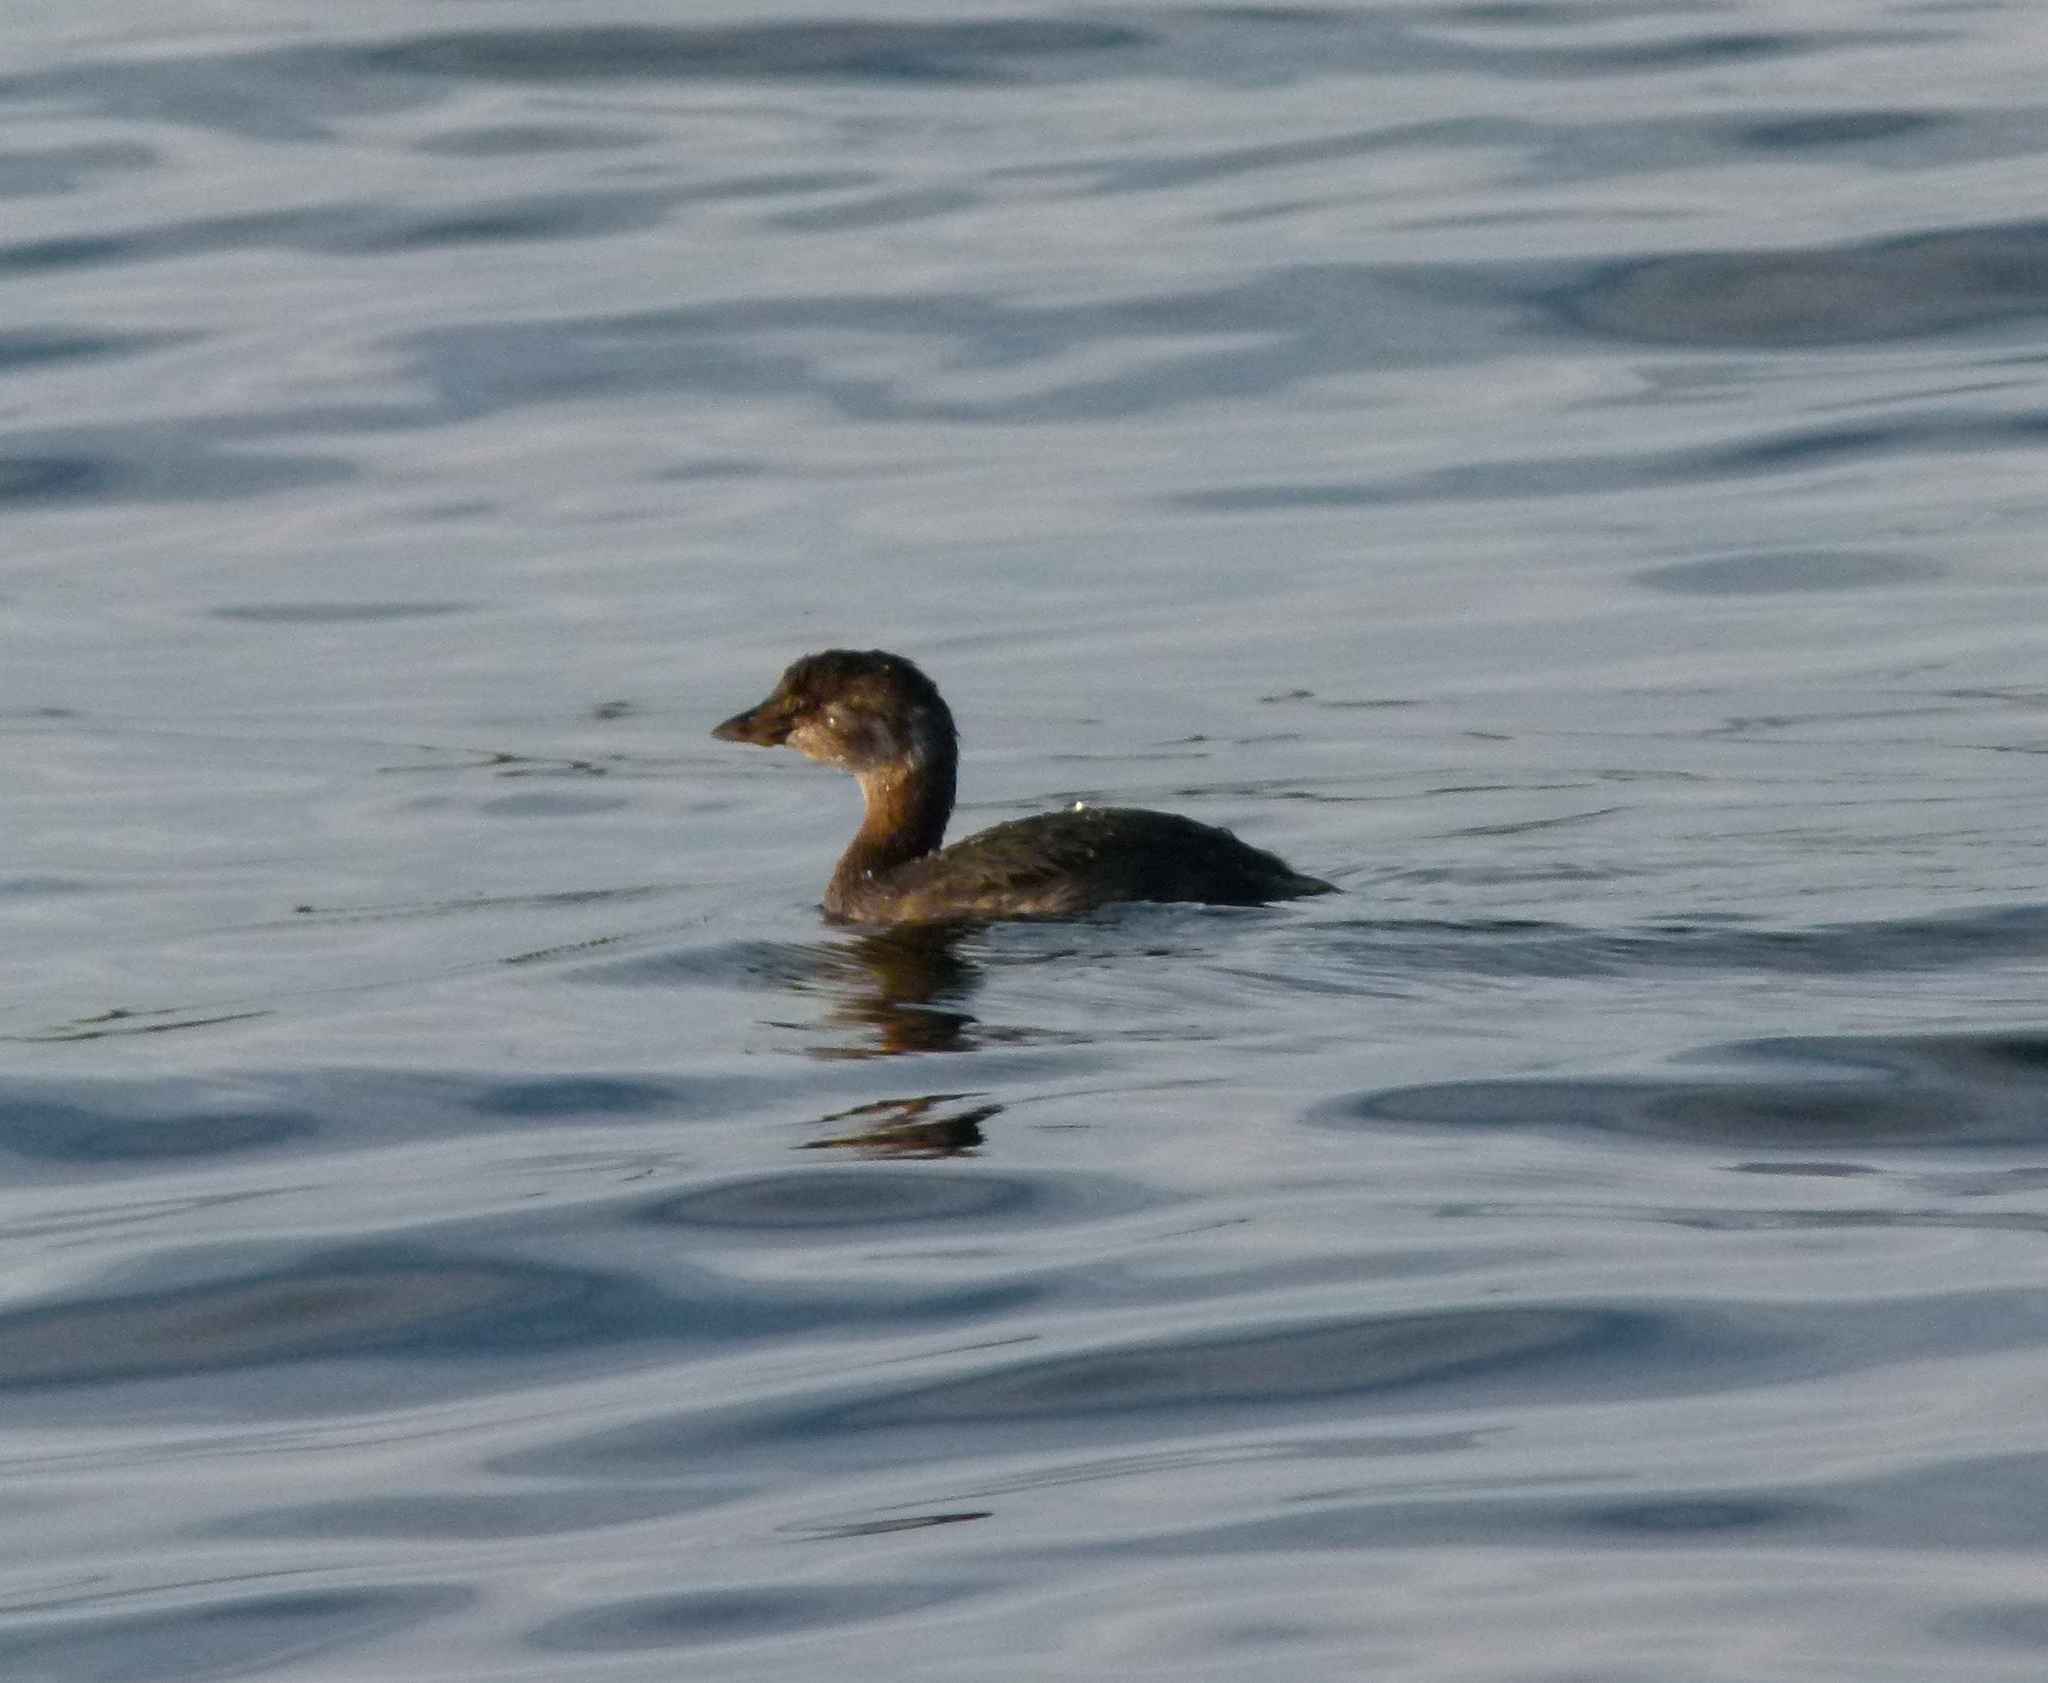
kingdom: Animalia
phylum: Chordata
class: Aves
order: Podicipediformes
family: Podicipedidae
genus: Podilymbus
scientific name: Podilymbus podiceps
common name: Pied-billed grebe
